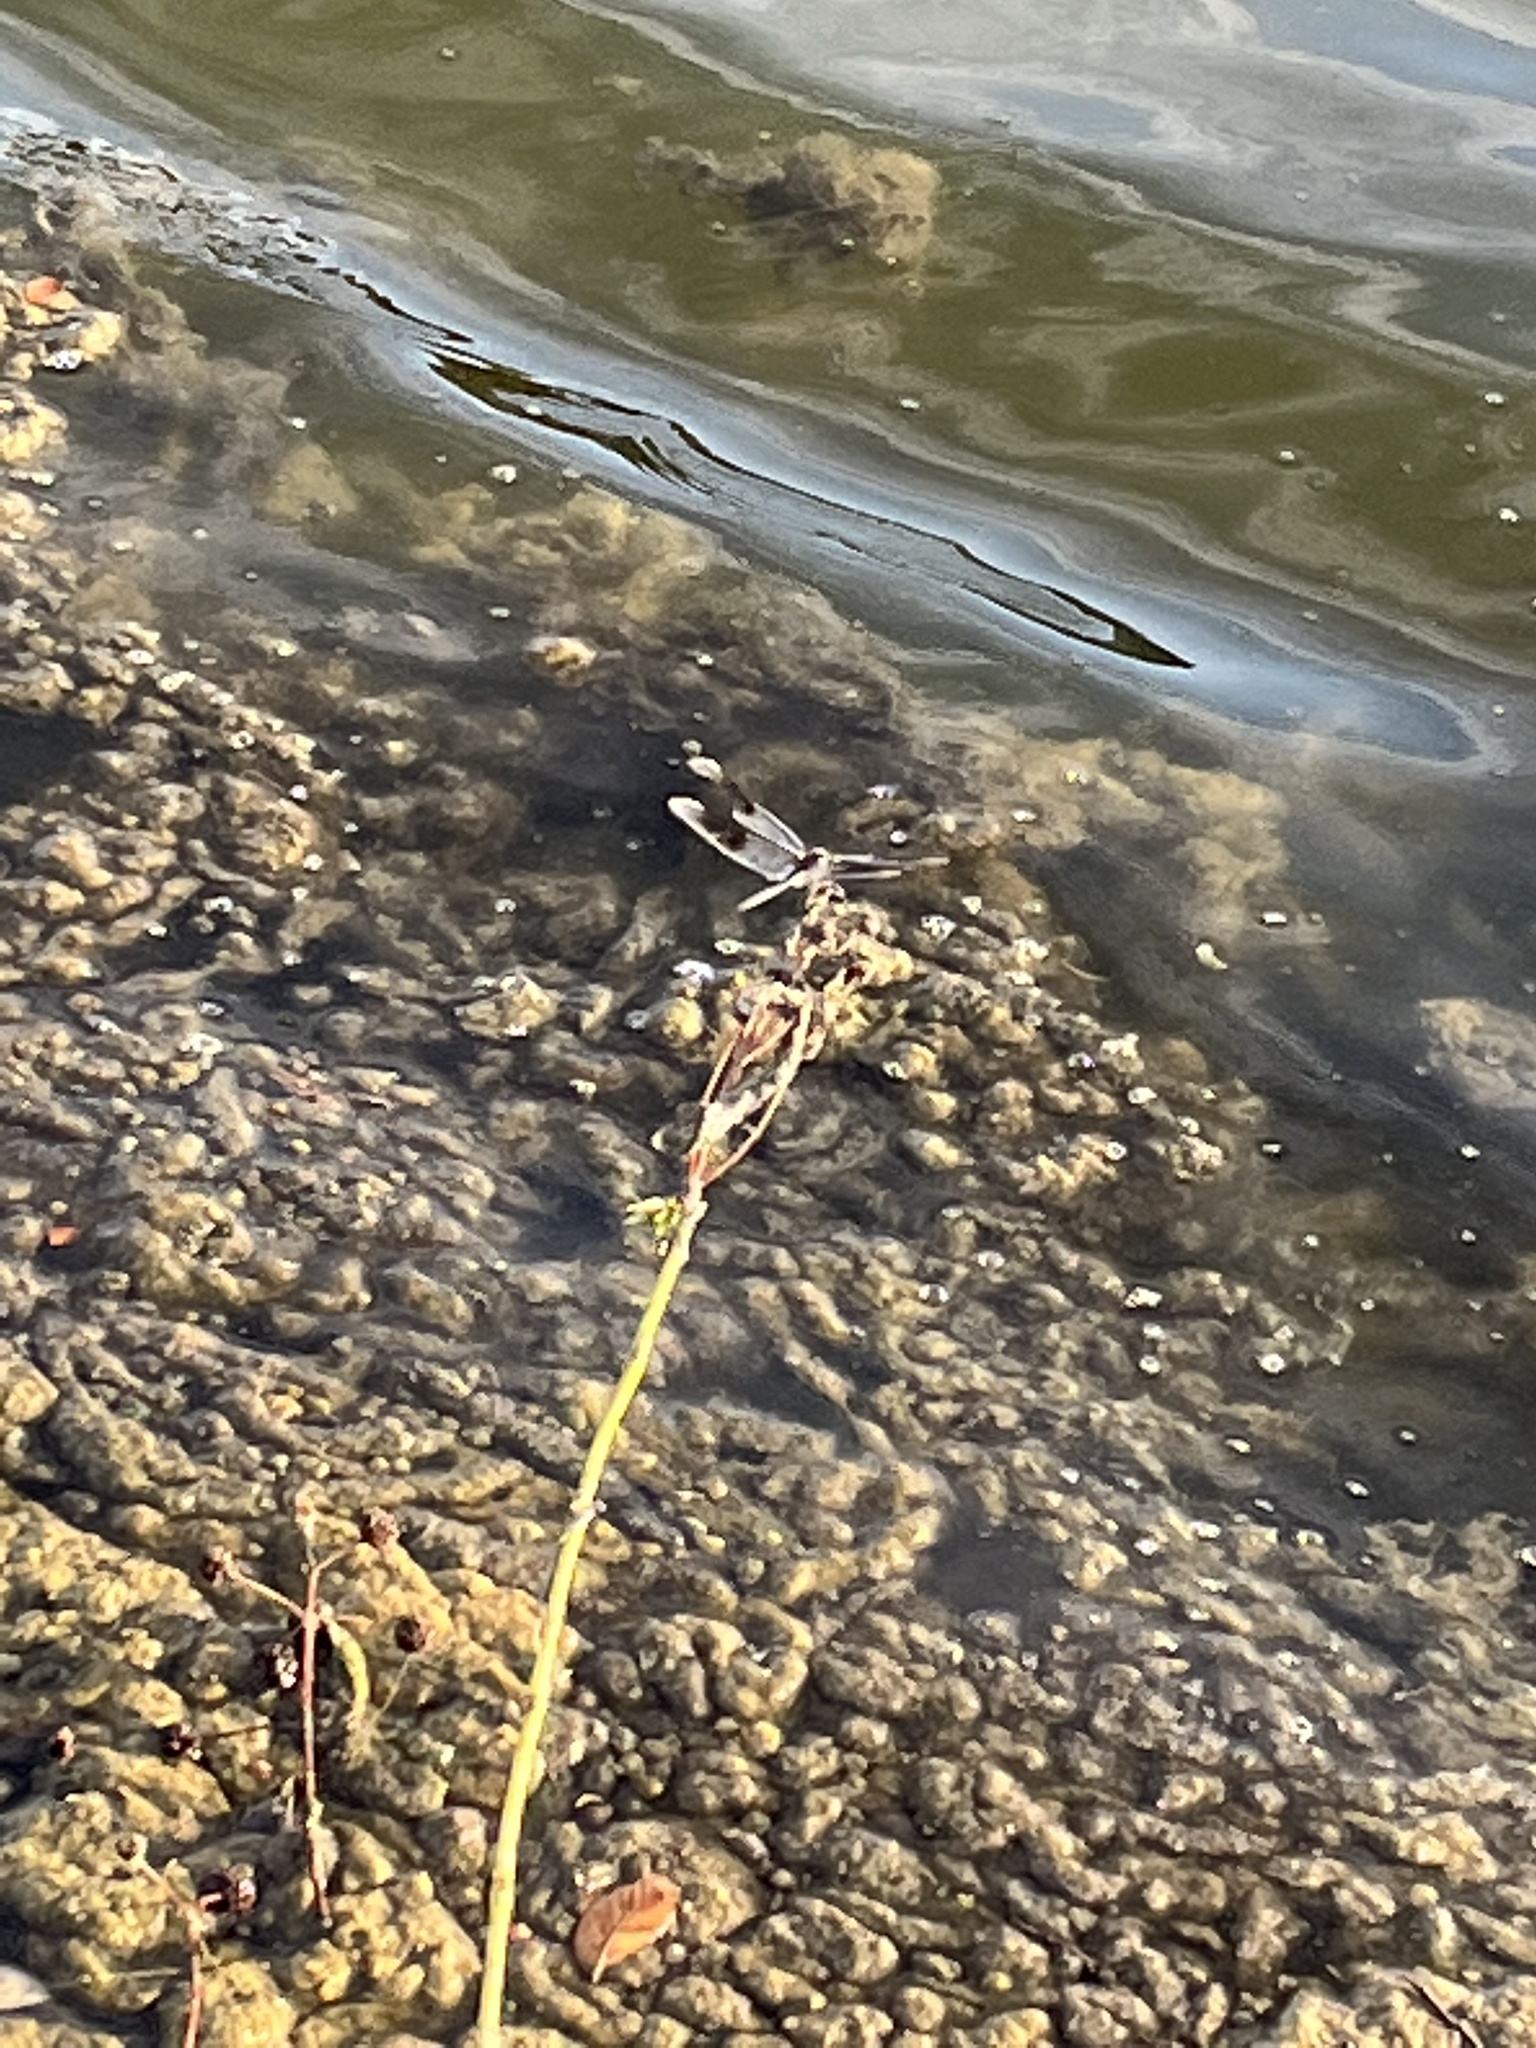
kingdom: Animalia
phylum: Arthropoda
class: Insecta
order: Odonata
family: Libellulidae
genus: Brachymesia
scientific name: Brachymesia gravida
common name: Four-spotted pennant
